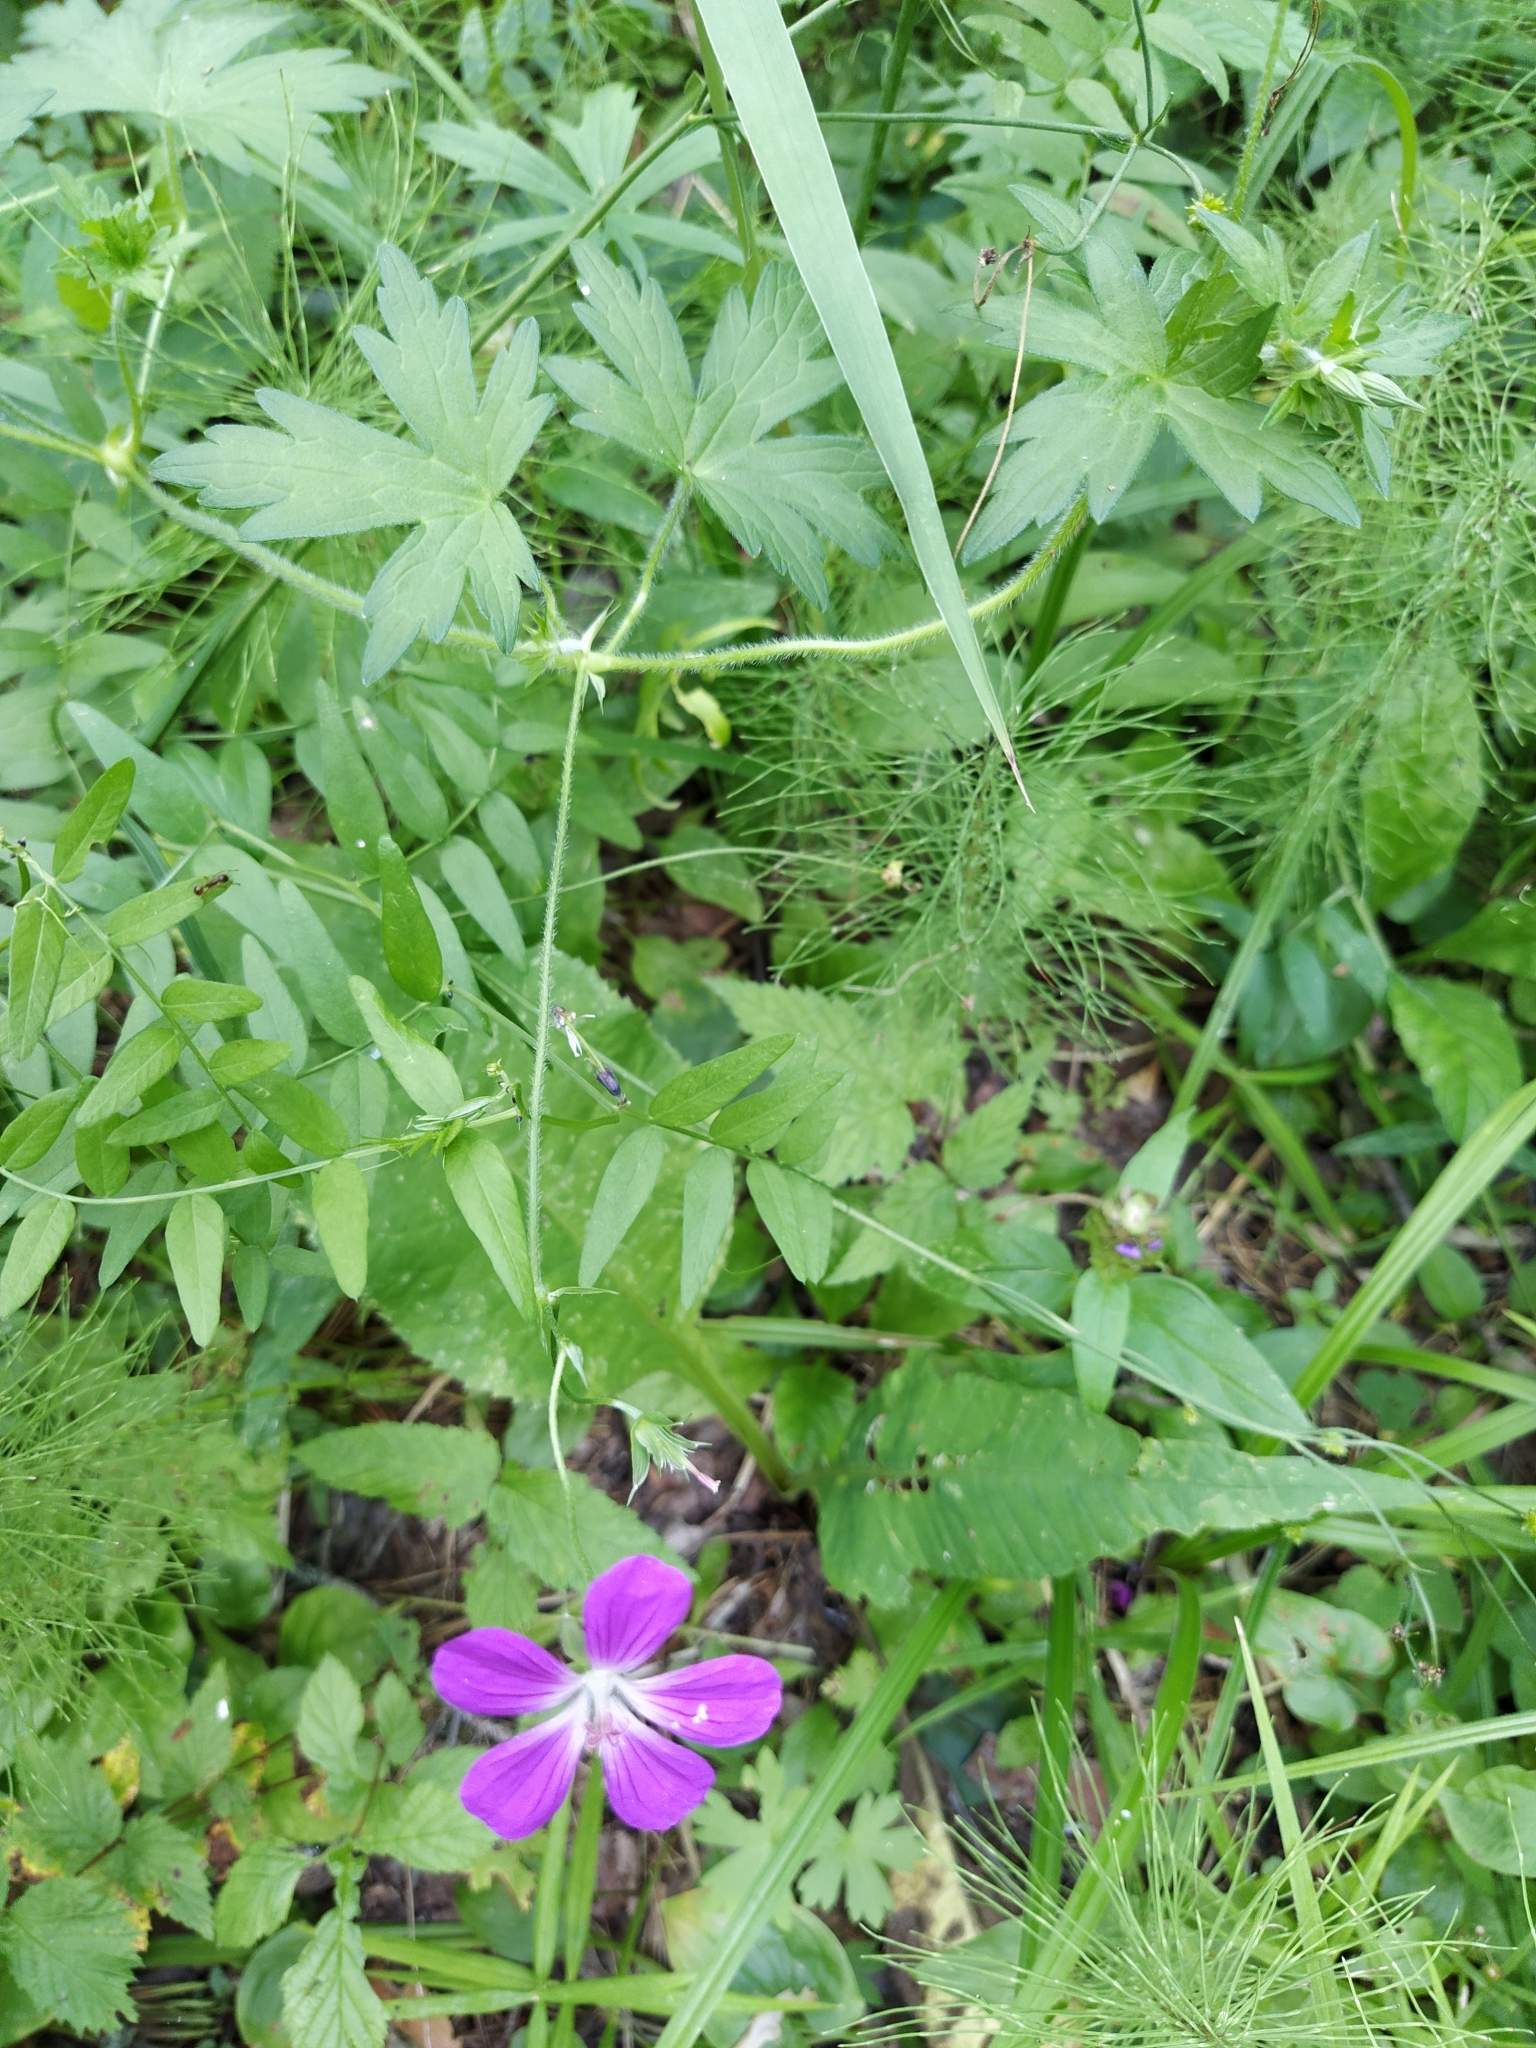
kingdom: Plantae
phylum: Tracheophyta
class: Magnoliopsida
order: Geraniales
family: Geraniaceae
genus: Geranium
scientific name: Geranium palustre
